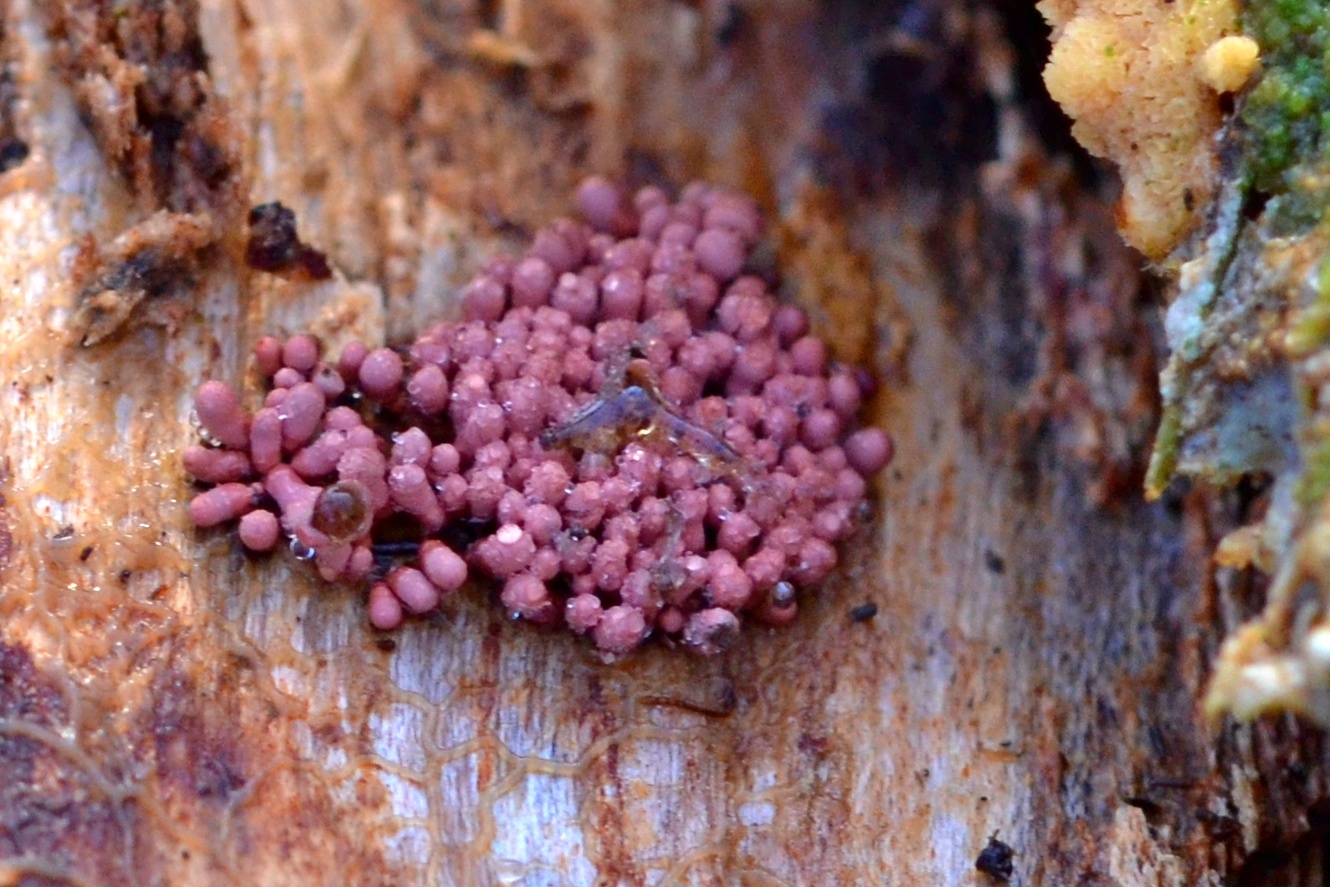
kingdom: Protozoa
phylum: Mycetozoa
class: Myxomycetes
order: Trichiales
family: Arcyriaceae
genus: Arcyria
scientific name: Arcyria stipata
